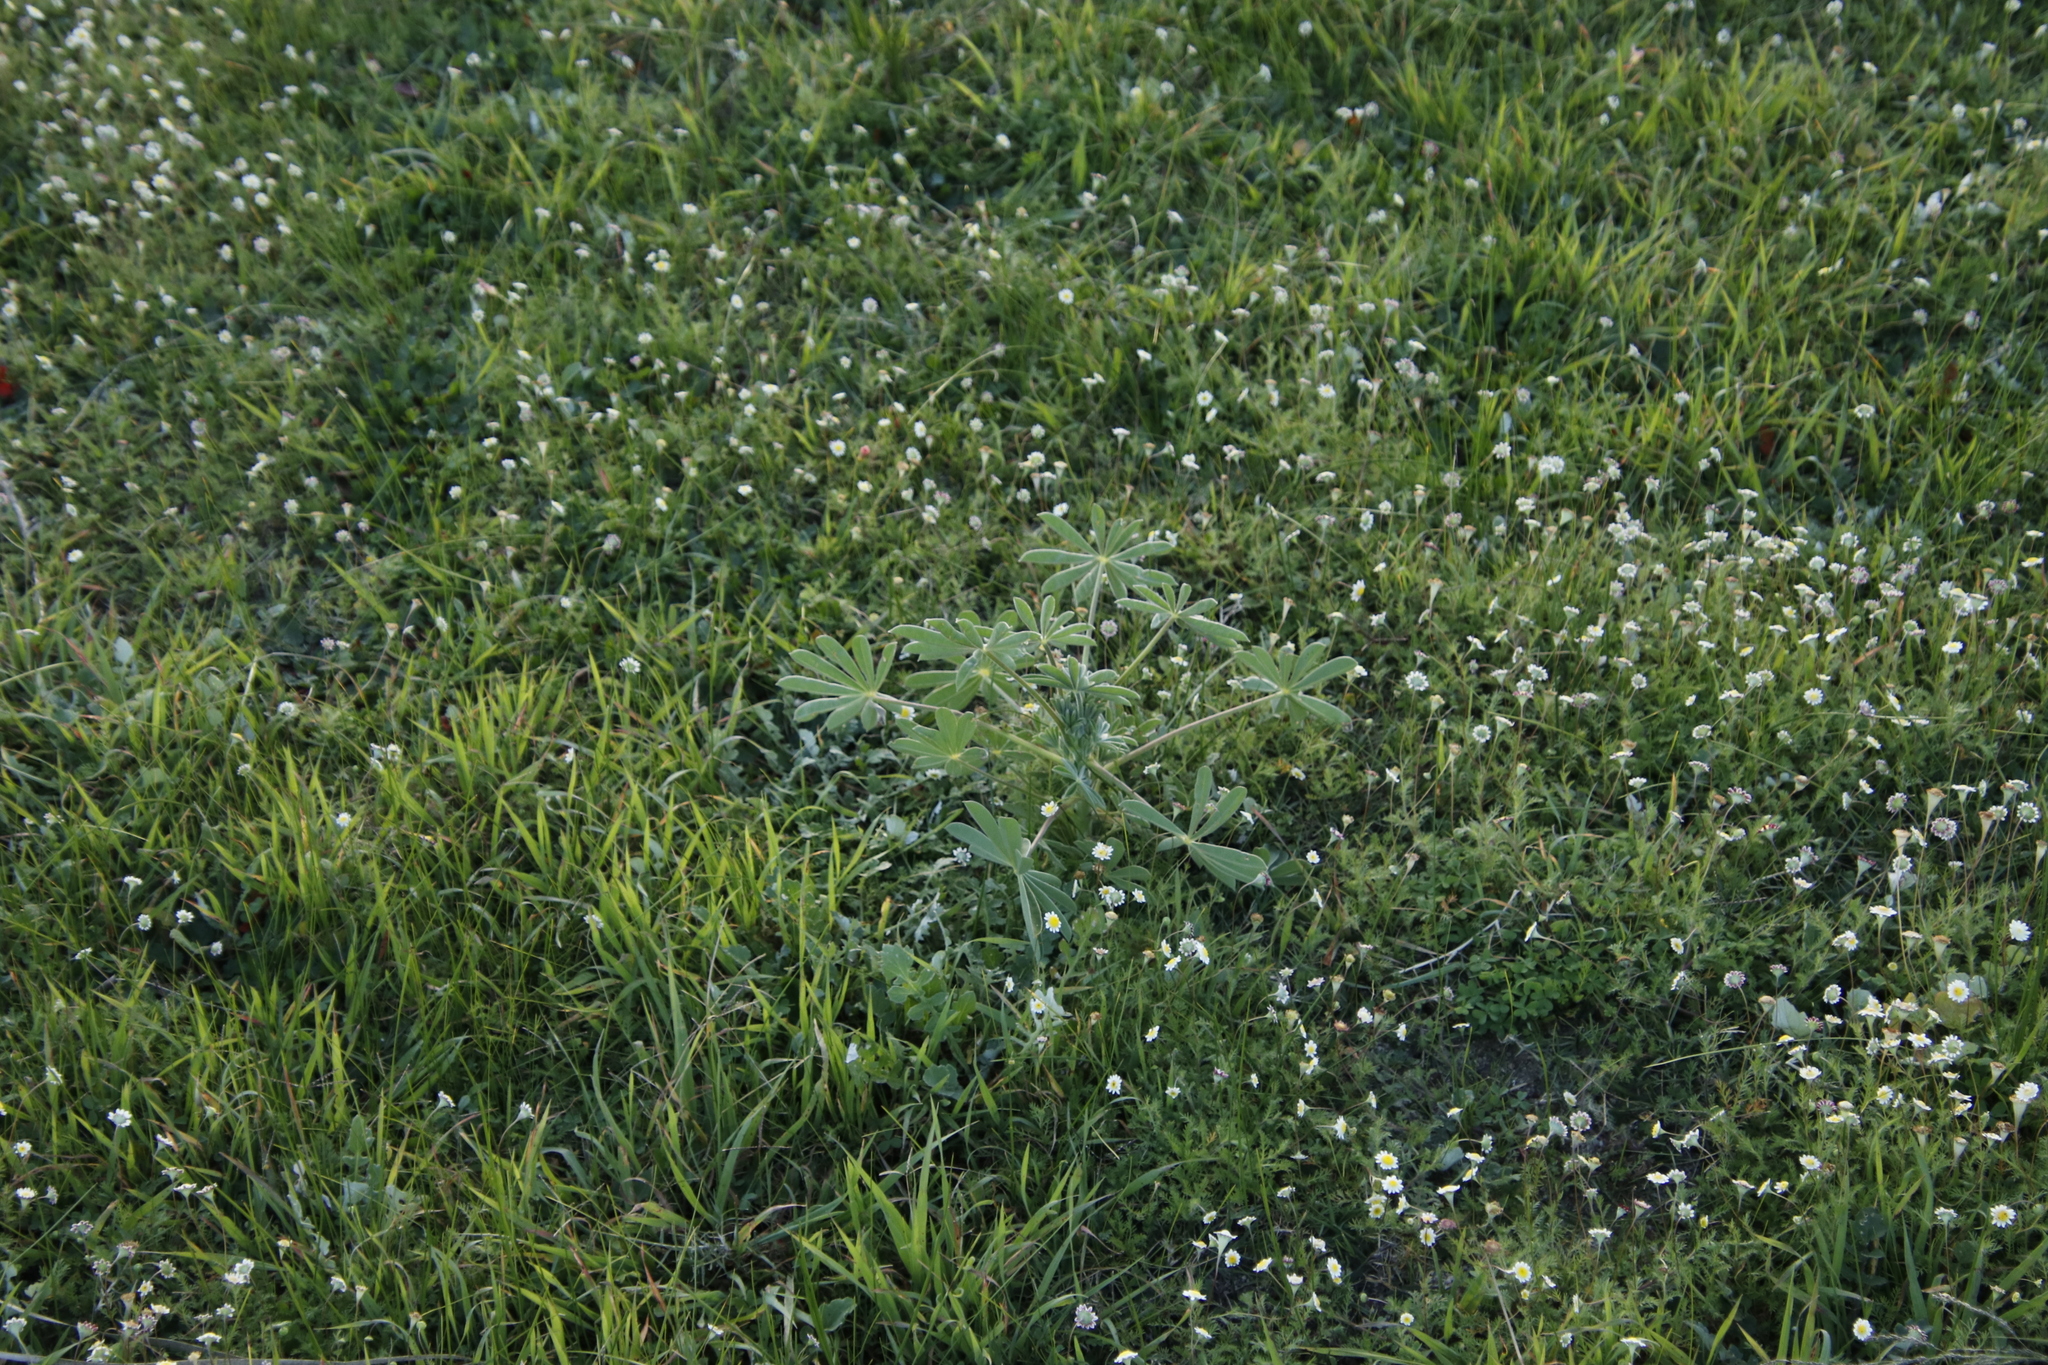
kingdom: Plantae
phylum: Tracheophyta
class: Magnoliopsida
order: Fabales
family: Fabaceae
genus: Lupinus
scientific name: Lupinus cosentinii
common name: Hairy blue lupin
